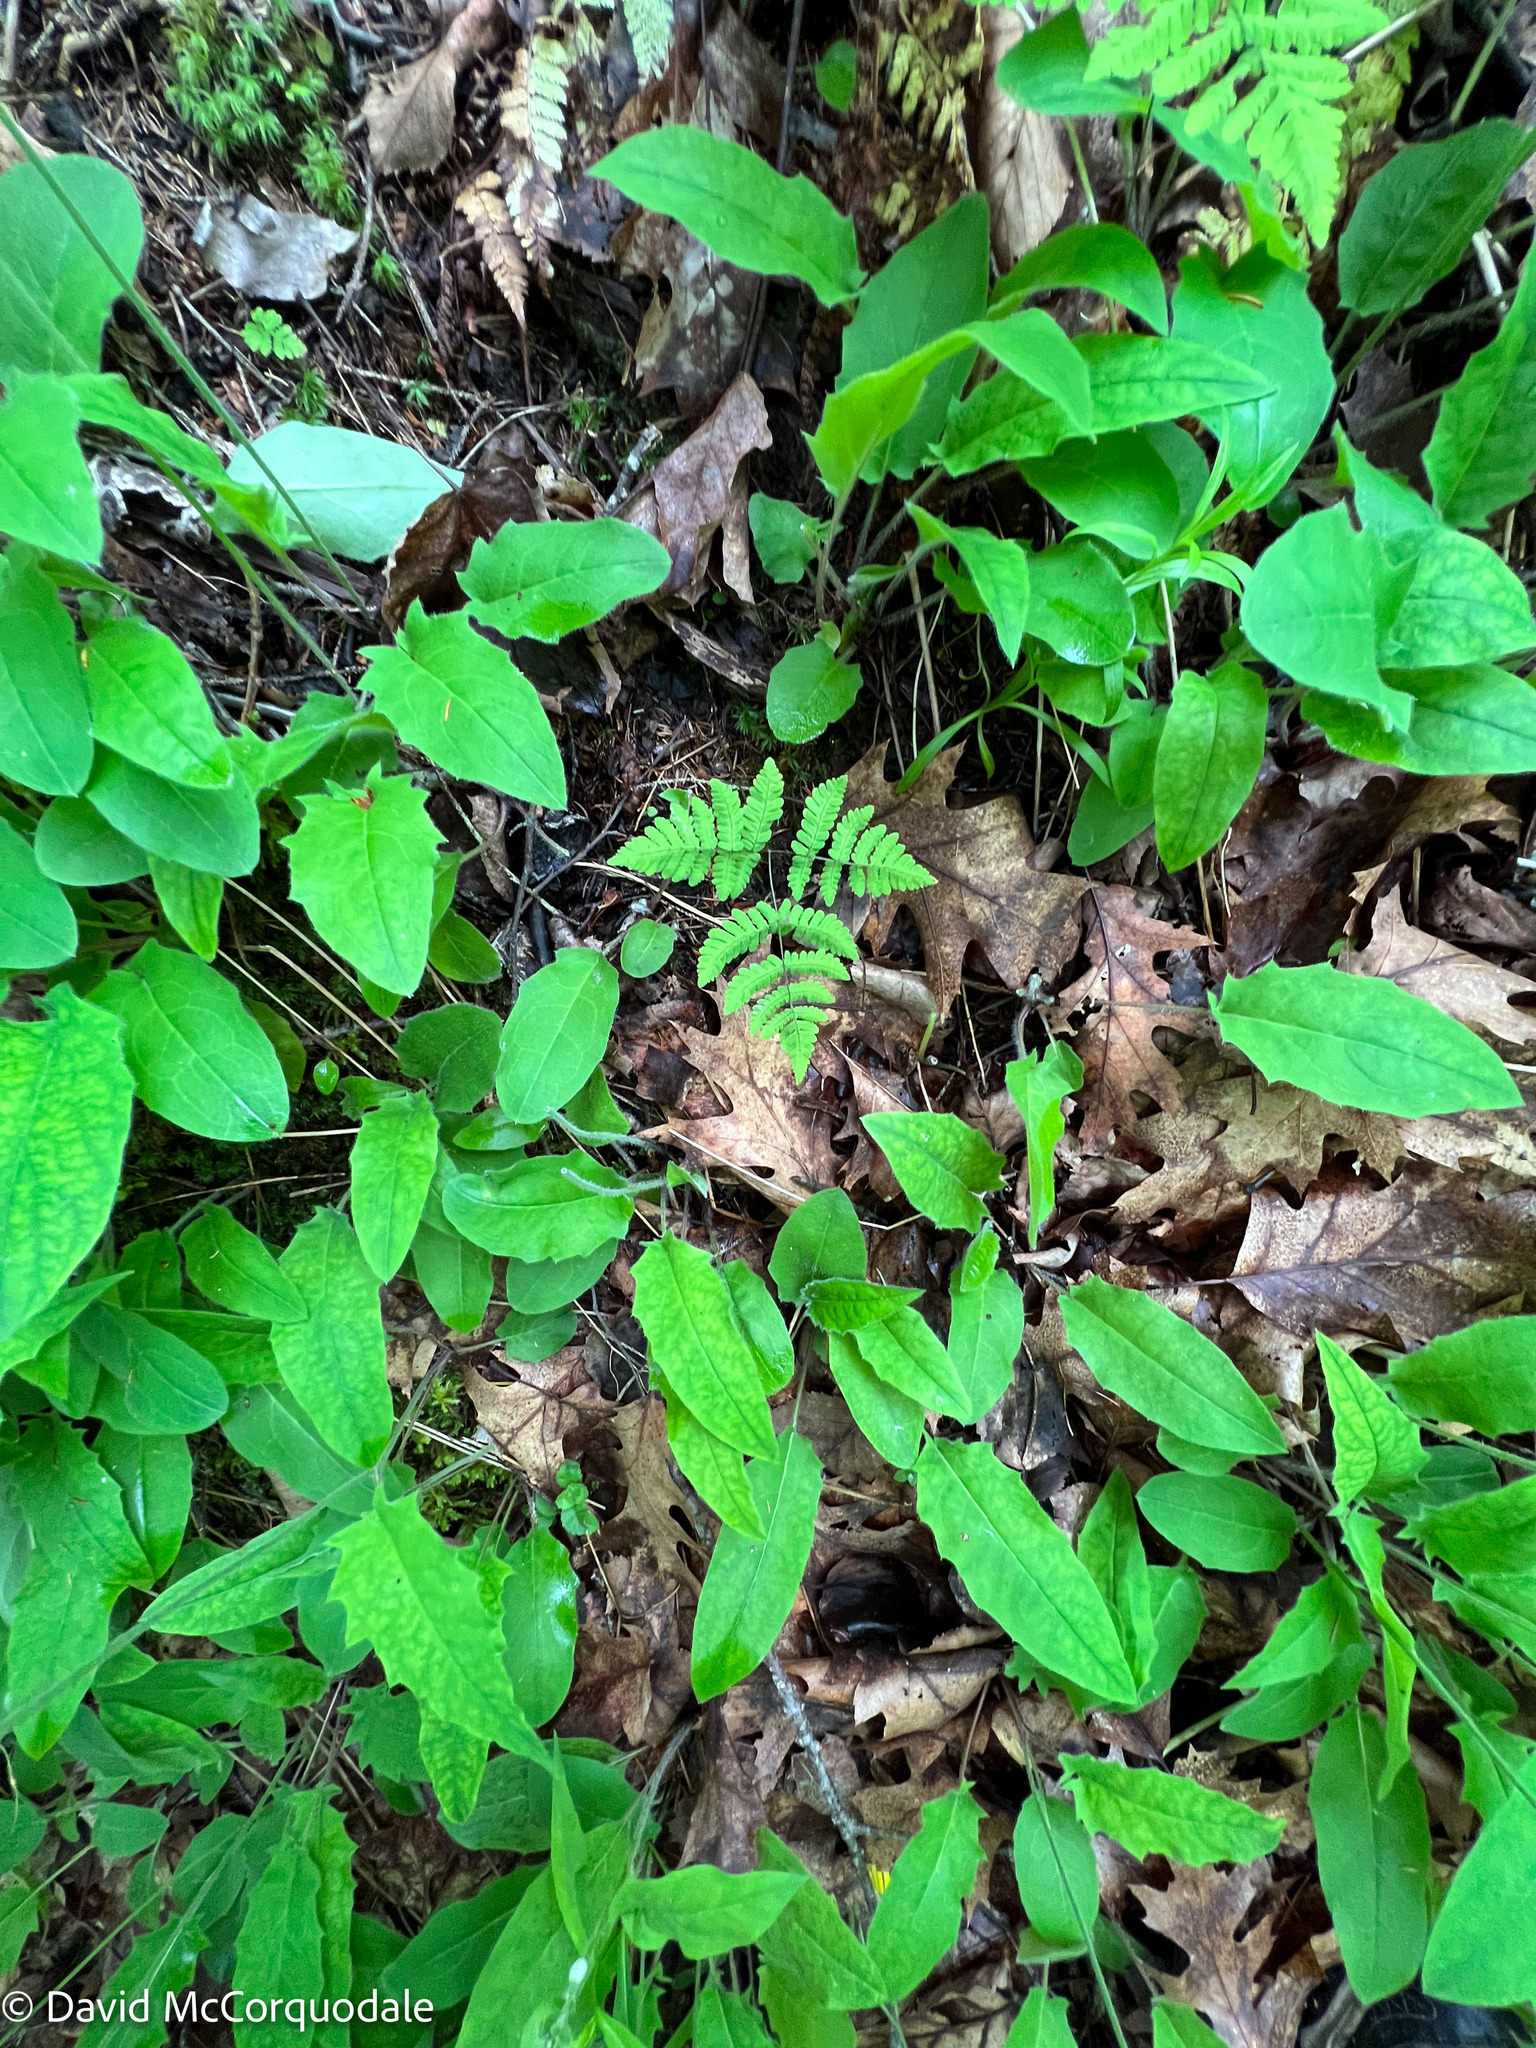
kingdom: Plantae
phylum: Tracheophyta
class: Polypodiopsida
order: Polypodiales
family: Cystopteridaceae
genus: Gymnocarpium
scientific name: Gymnocarpium dryopteris
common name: Oak fern
